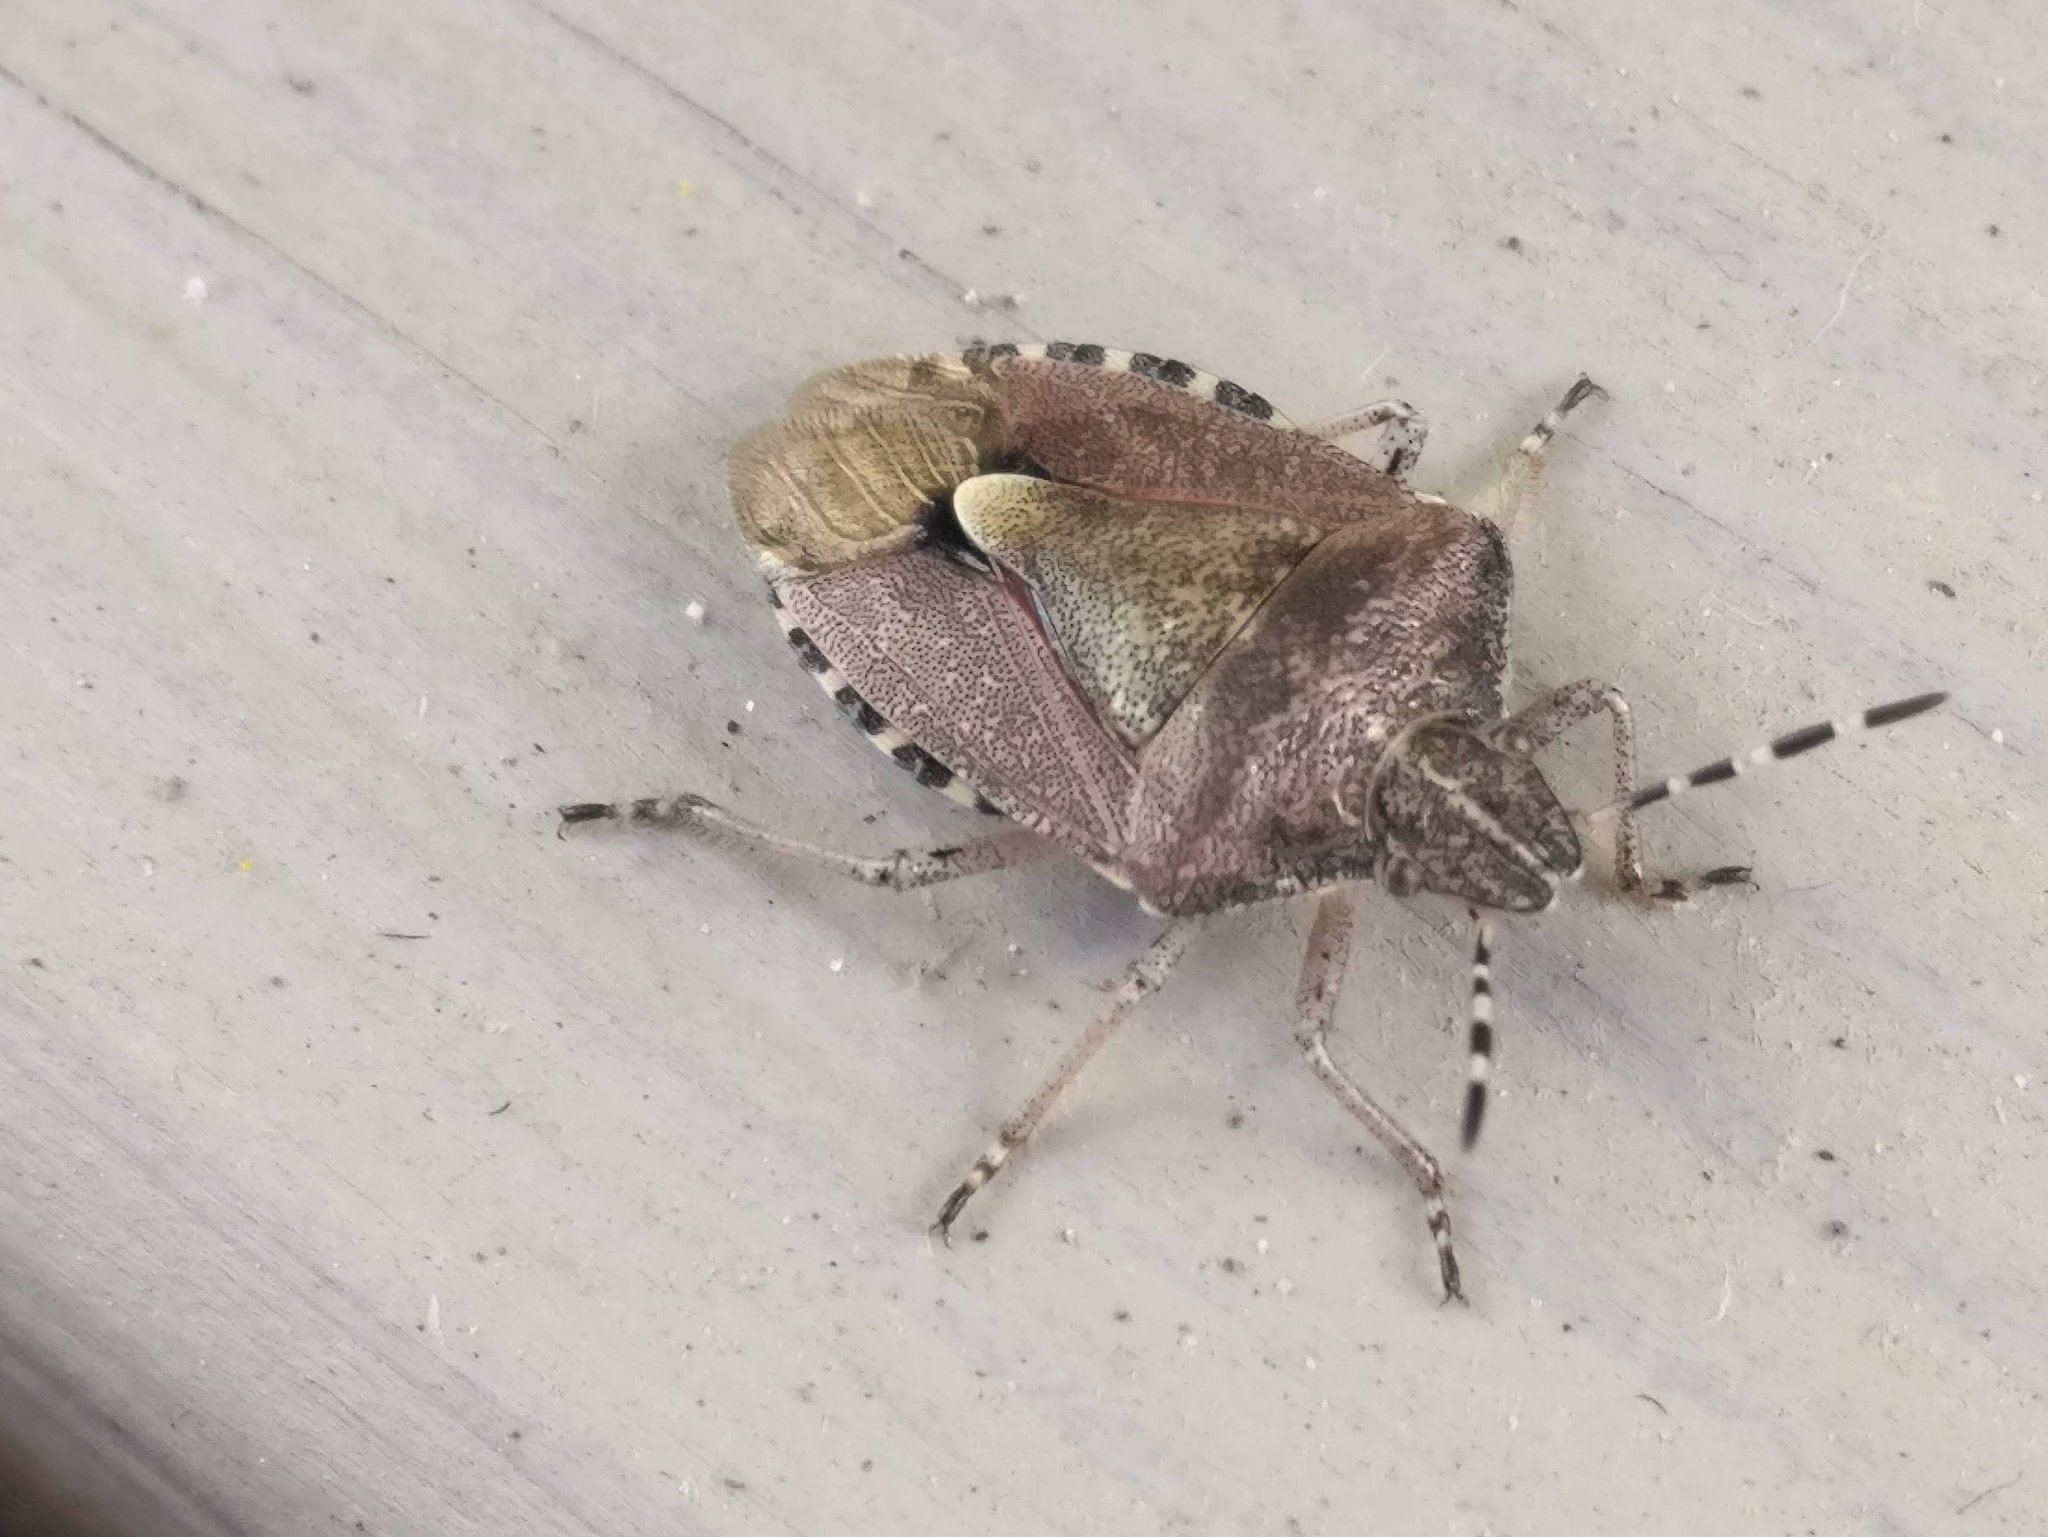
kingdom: Animalia
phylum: Arthropoda
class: Insecta
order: Hemiptera
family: Pentatomidae
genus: Dolycoris
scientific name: Dolycoris baccarum
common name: Sloe bug
